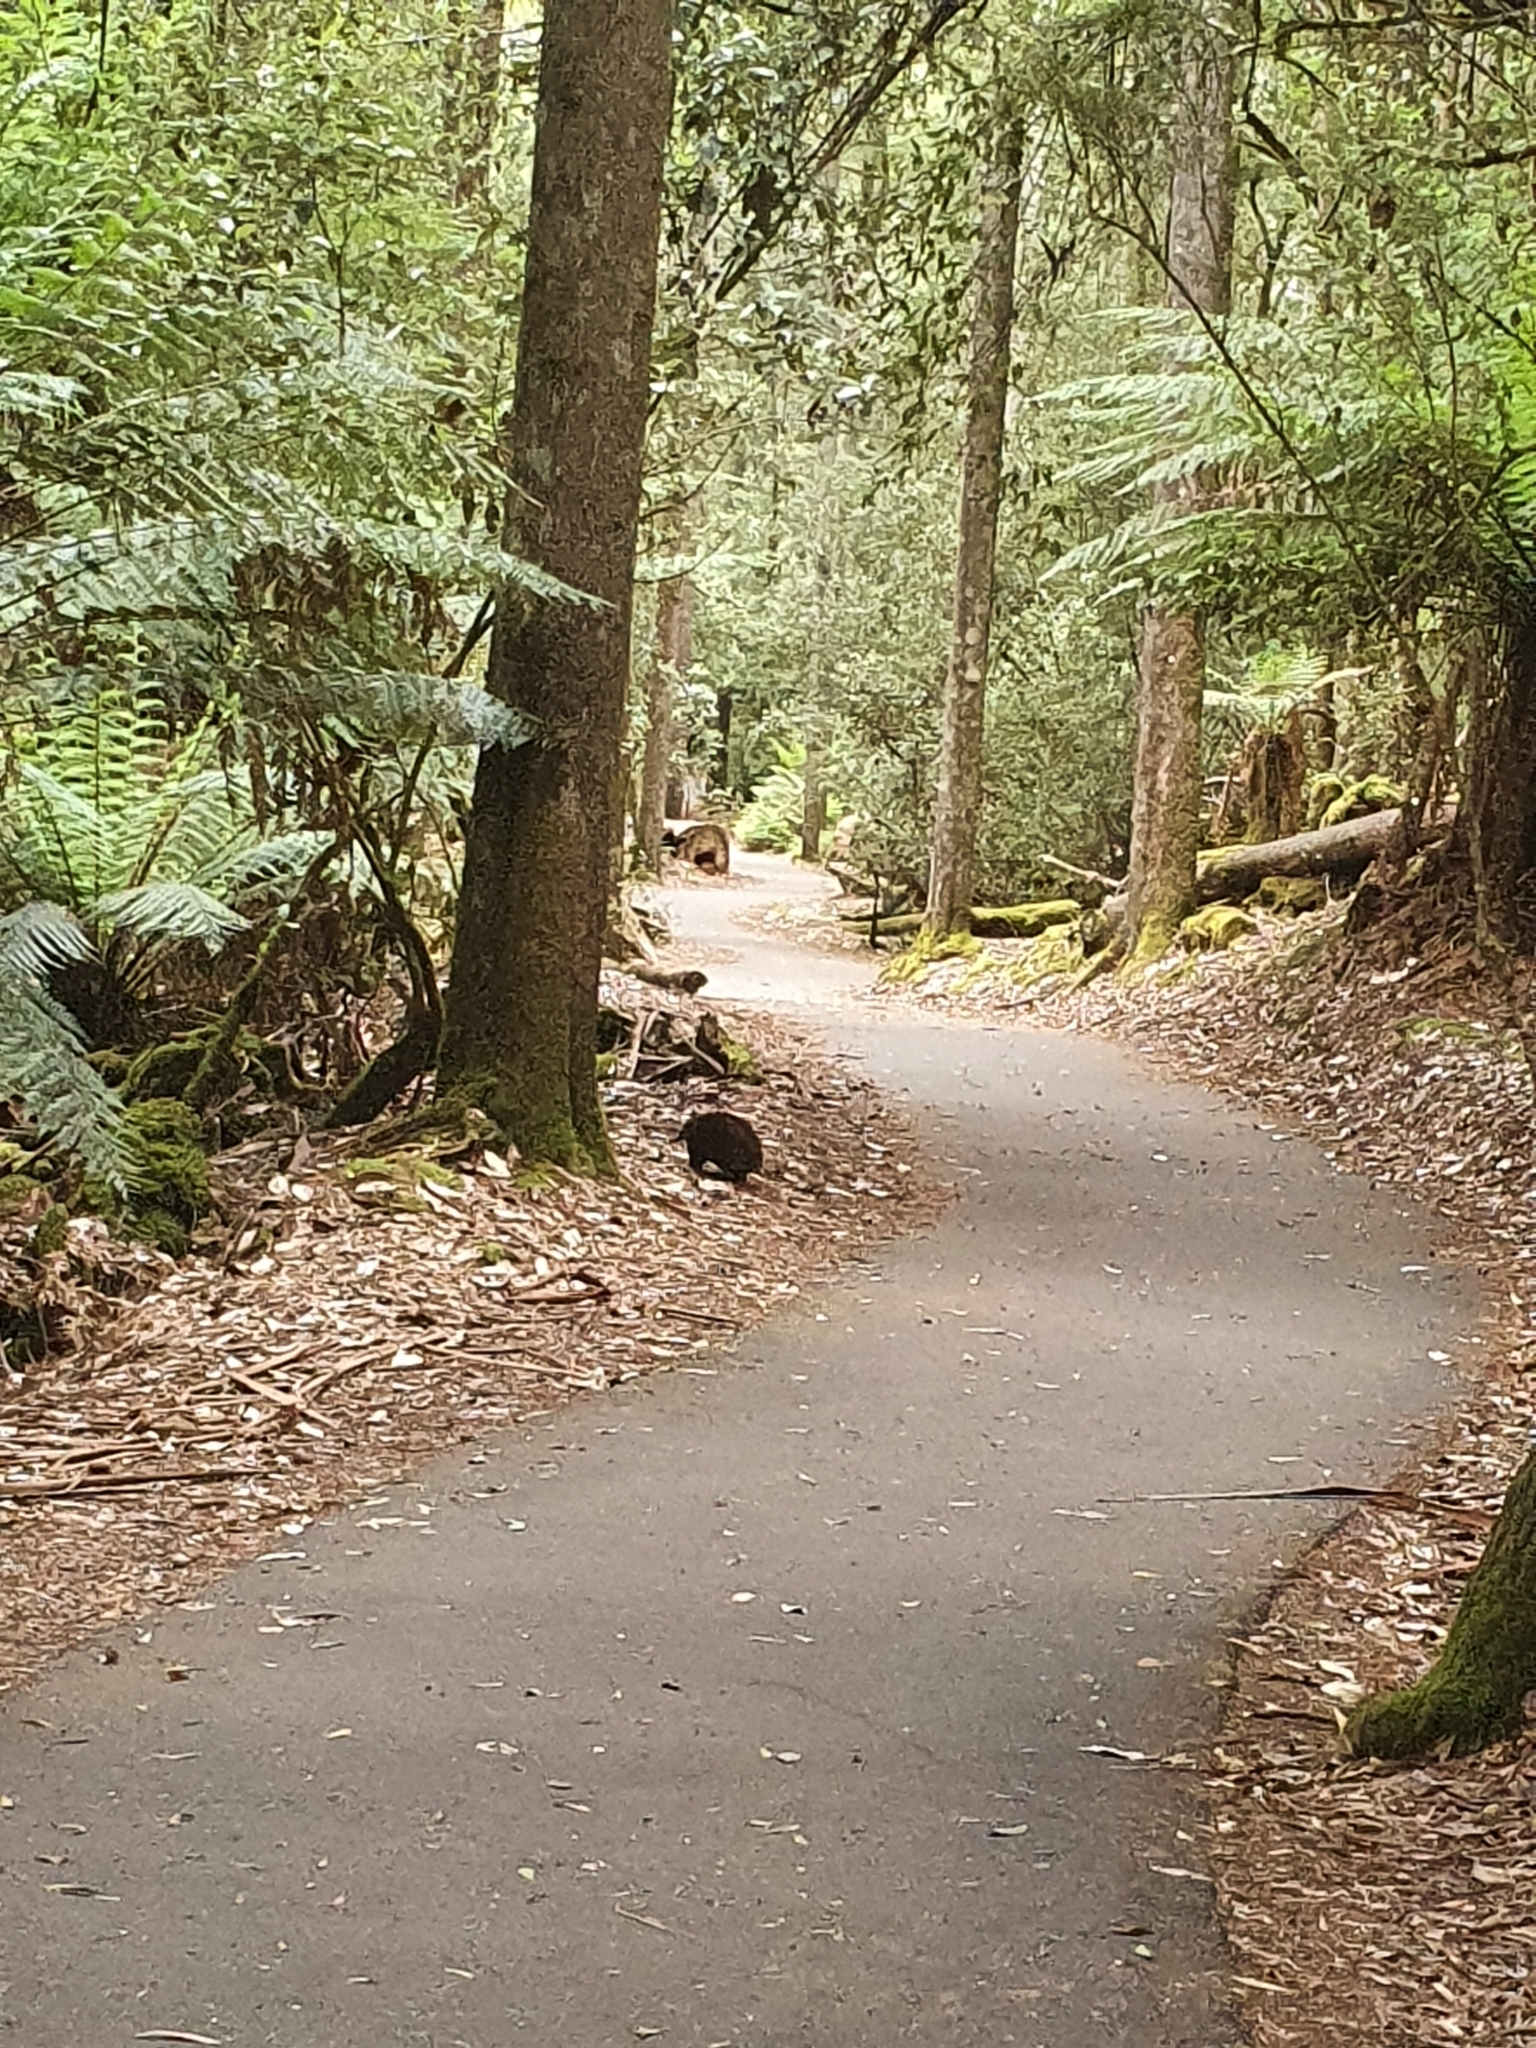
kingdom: Animalia
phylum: Chordata
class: Mammalia
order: Monotremata
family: Tachyglossidae
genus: Tachyglossus
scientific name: Tachyglossus aculeatus
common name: Short-beaked echidna
